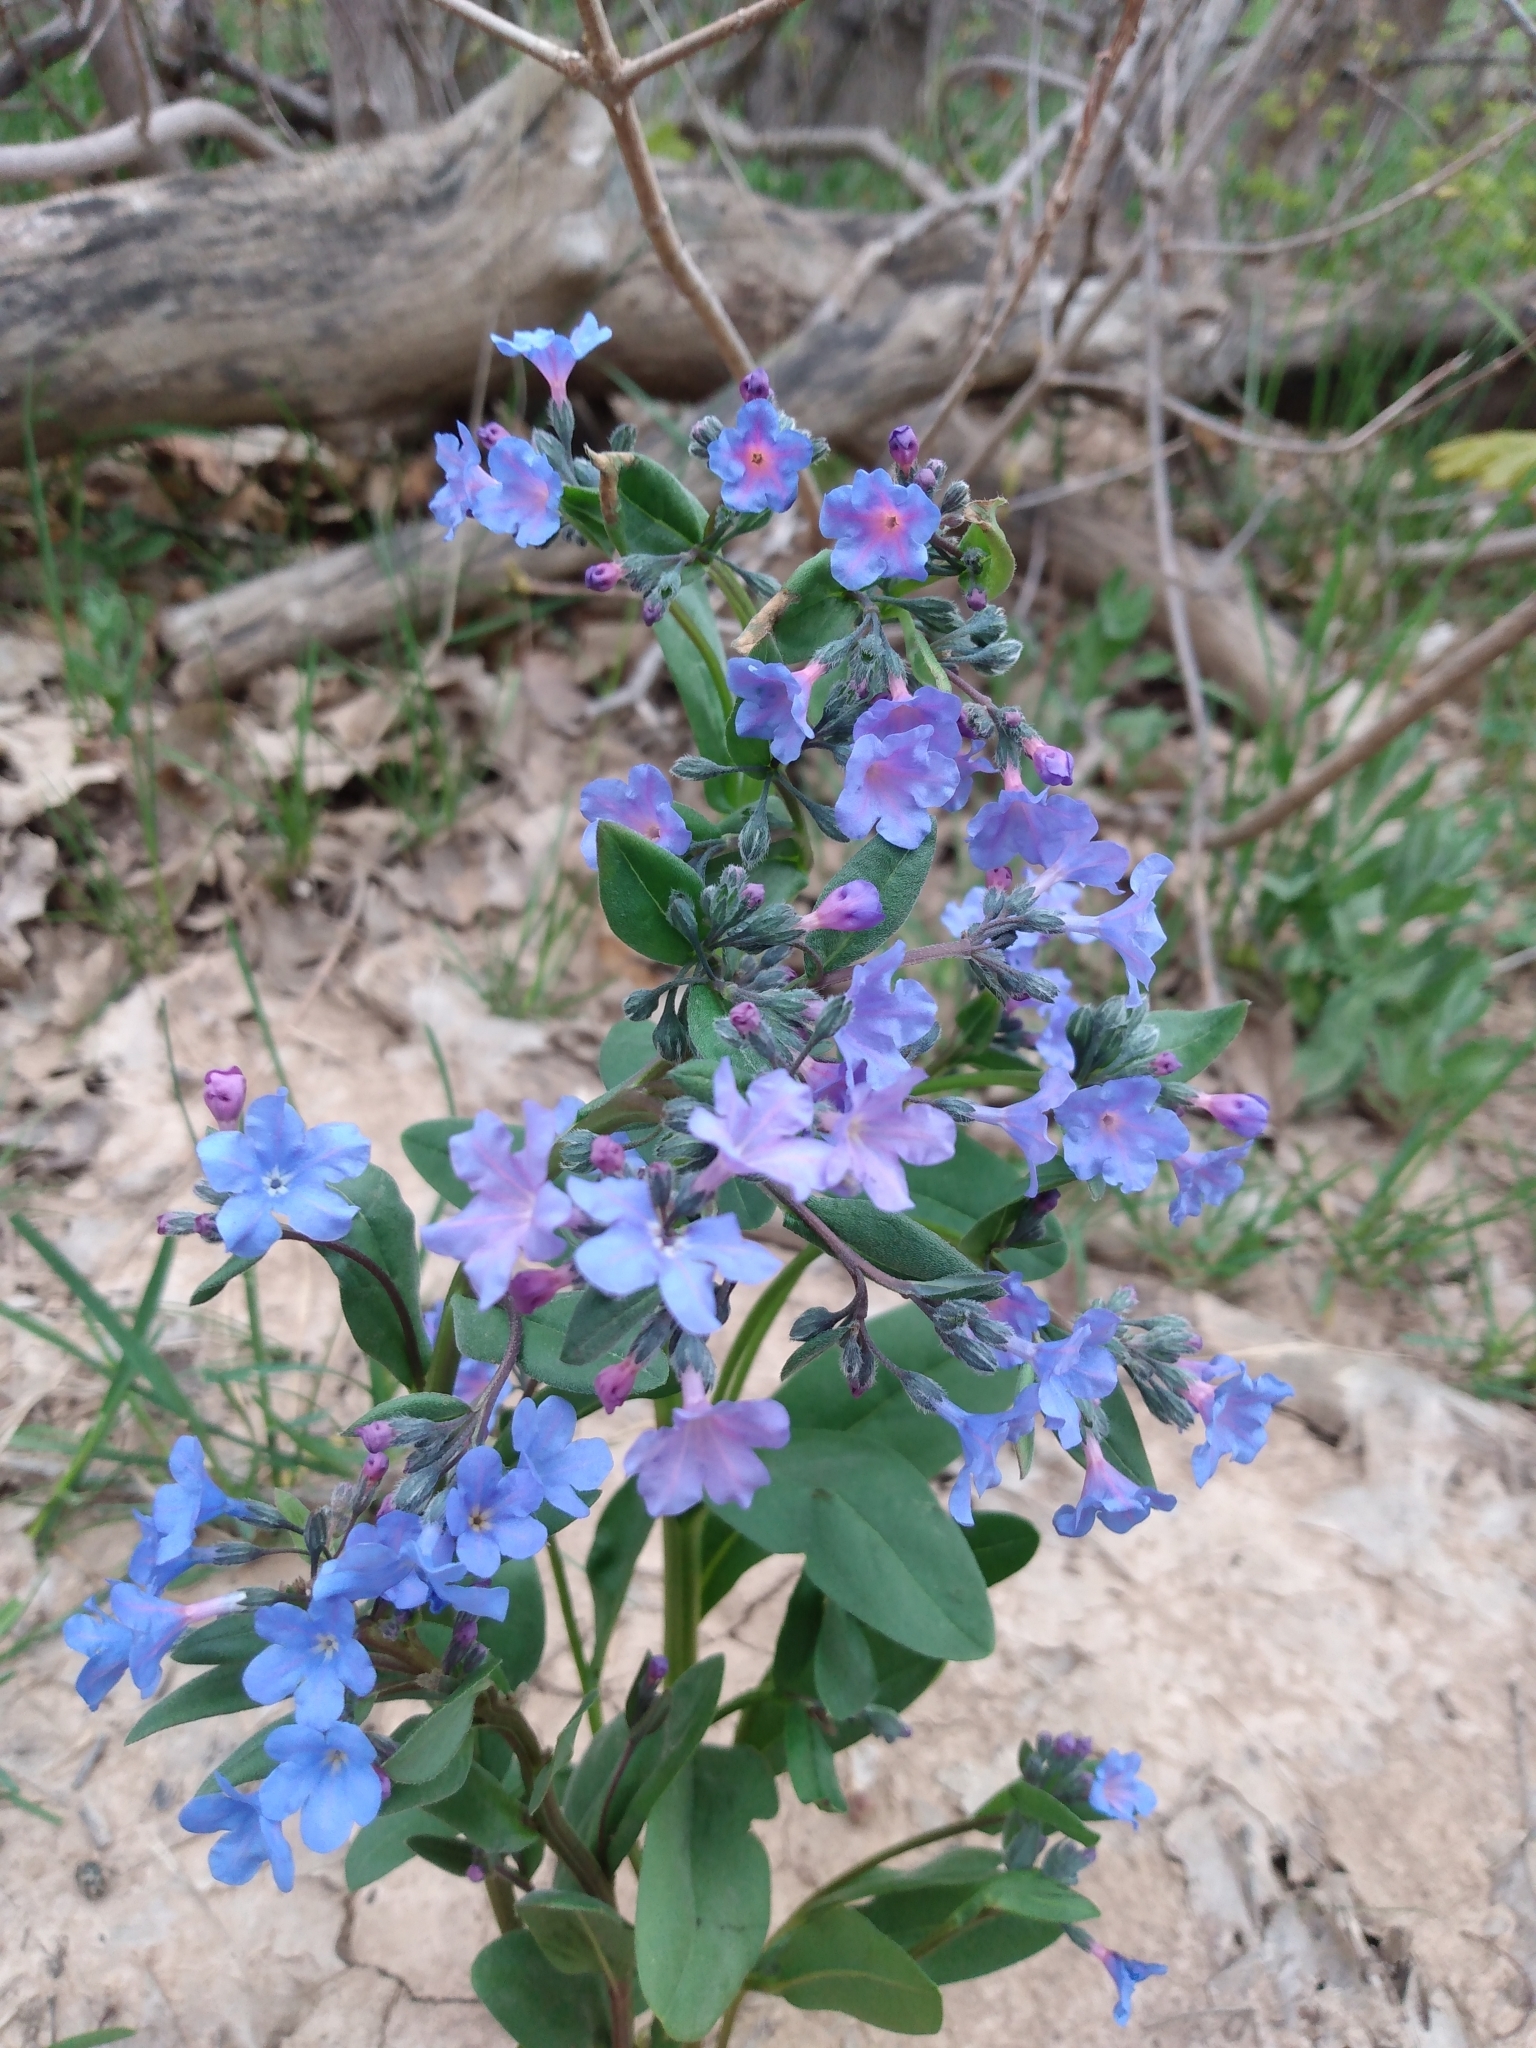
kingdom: Plantae
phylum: Tracheophyta
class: Magnoliopsida
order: Boraginales
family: Boraginaceae
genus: Mertensia
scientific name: Mertensia brevistyla
